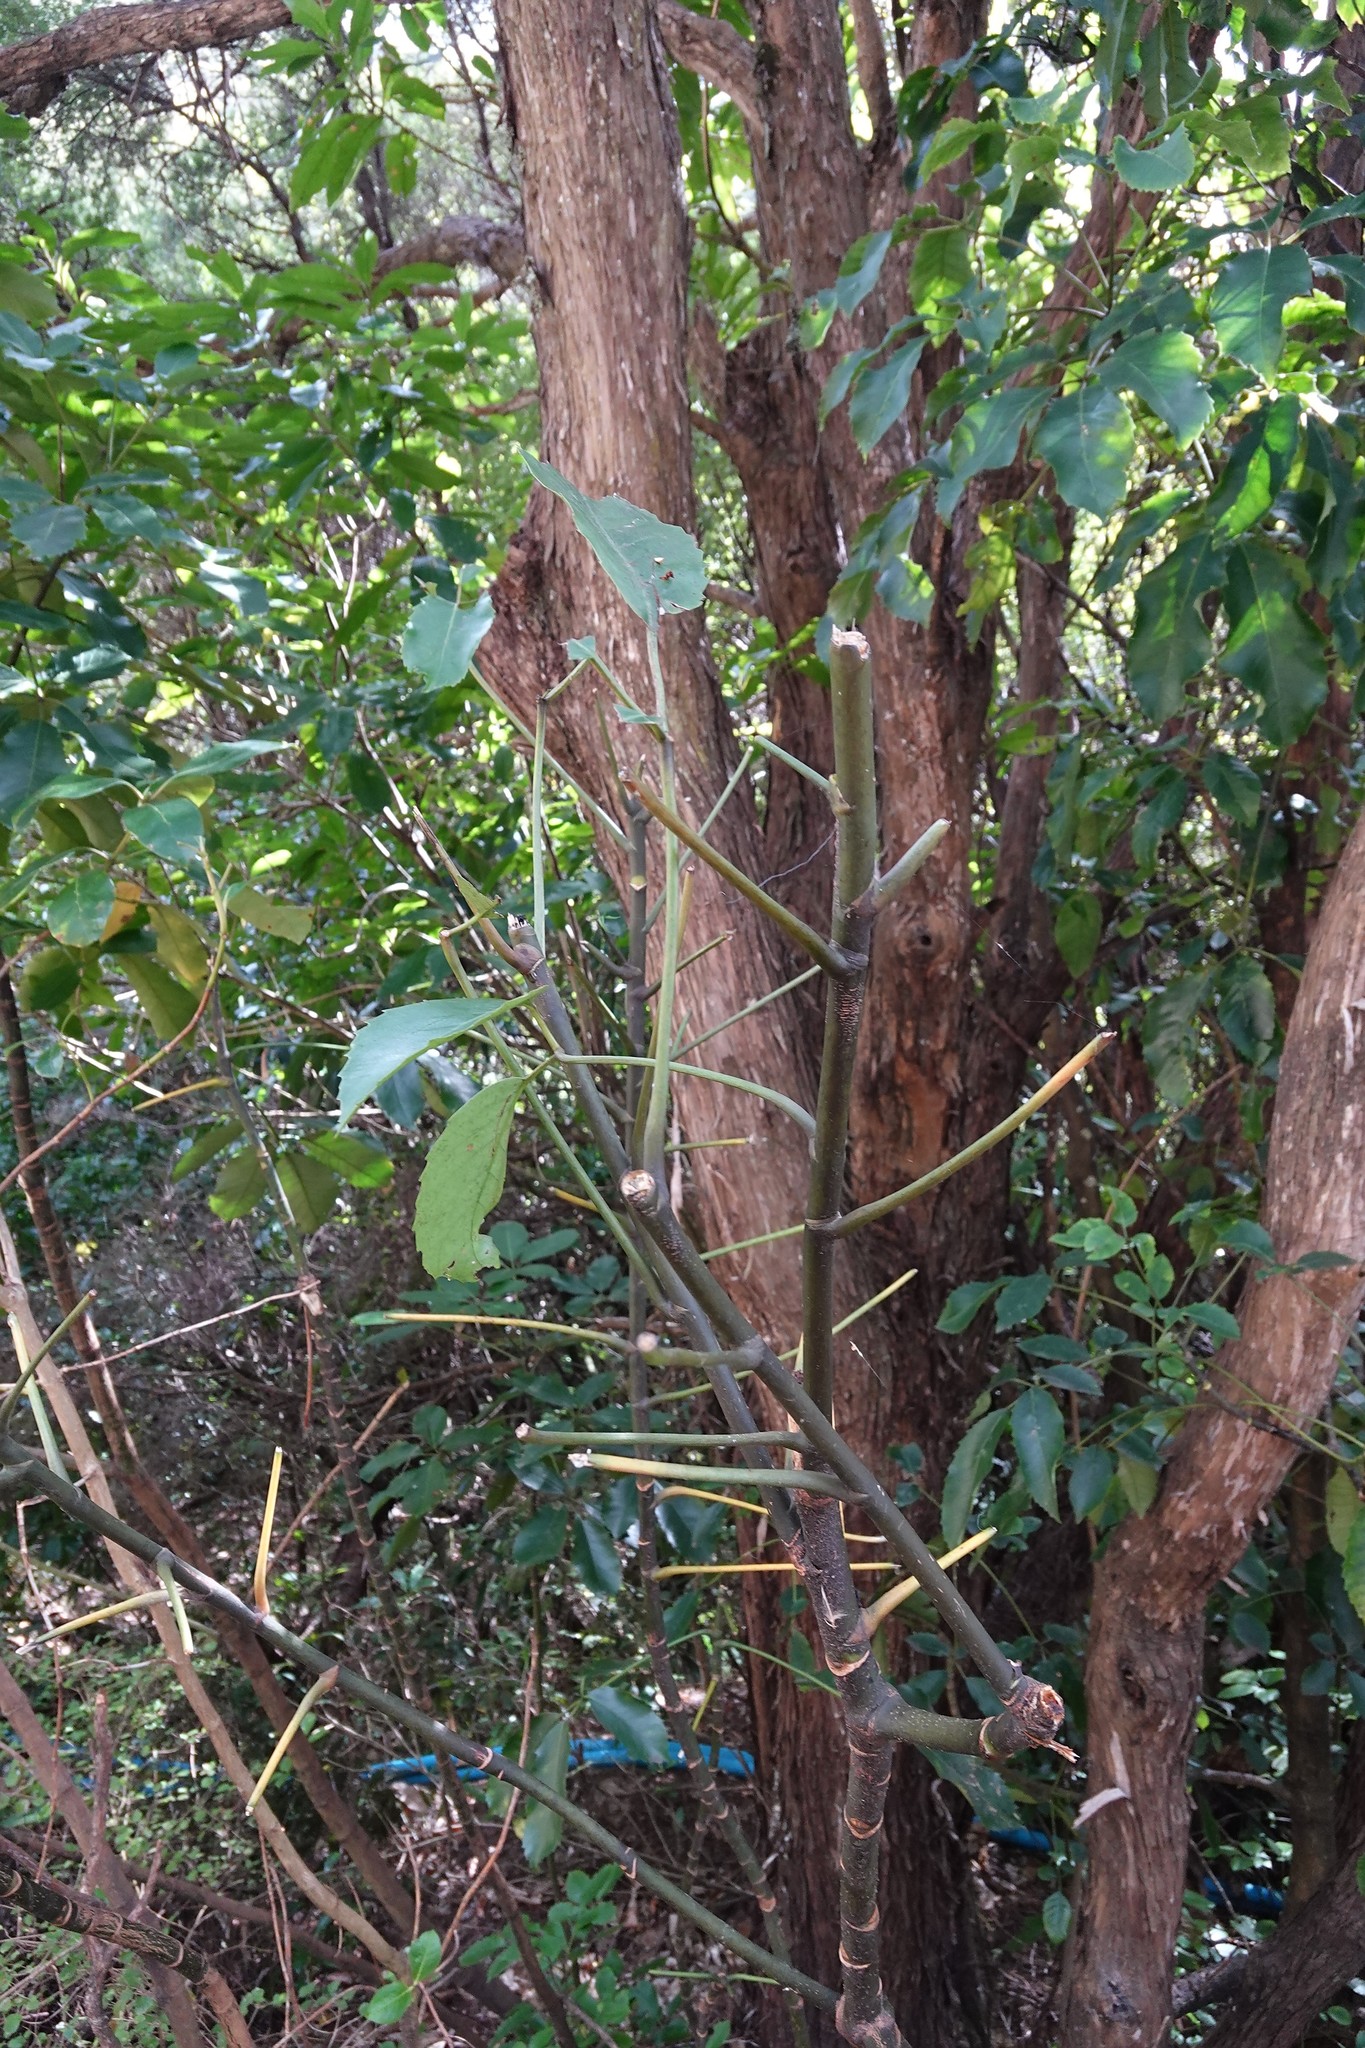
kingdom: Plantae
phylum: Tracheophyta
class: Magnoliopsida
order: Apiales
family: Araliaceae
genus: Neopanax
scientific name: Neopanax arboreus
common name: Five-fingers
